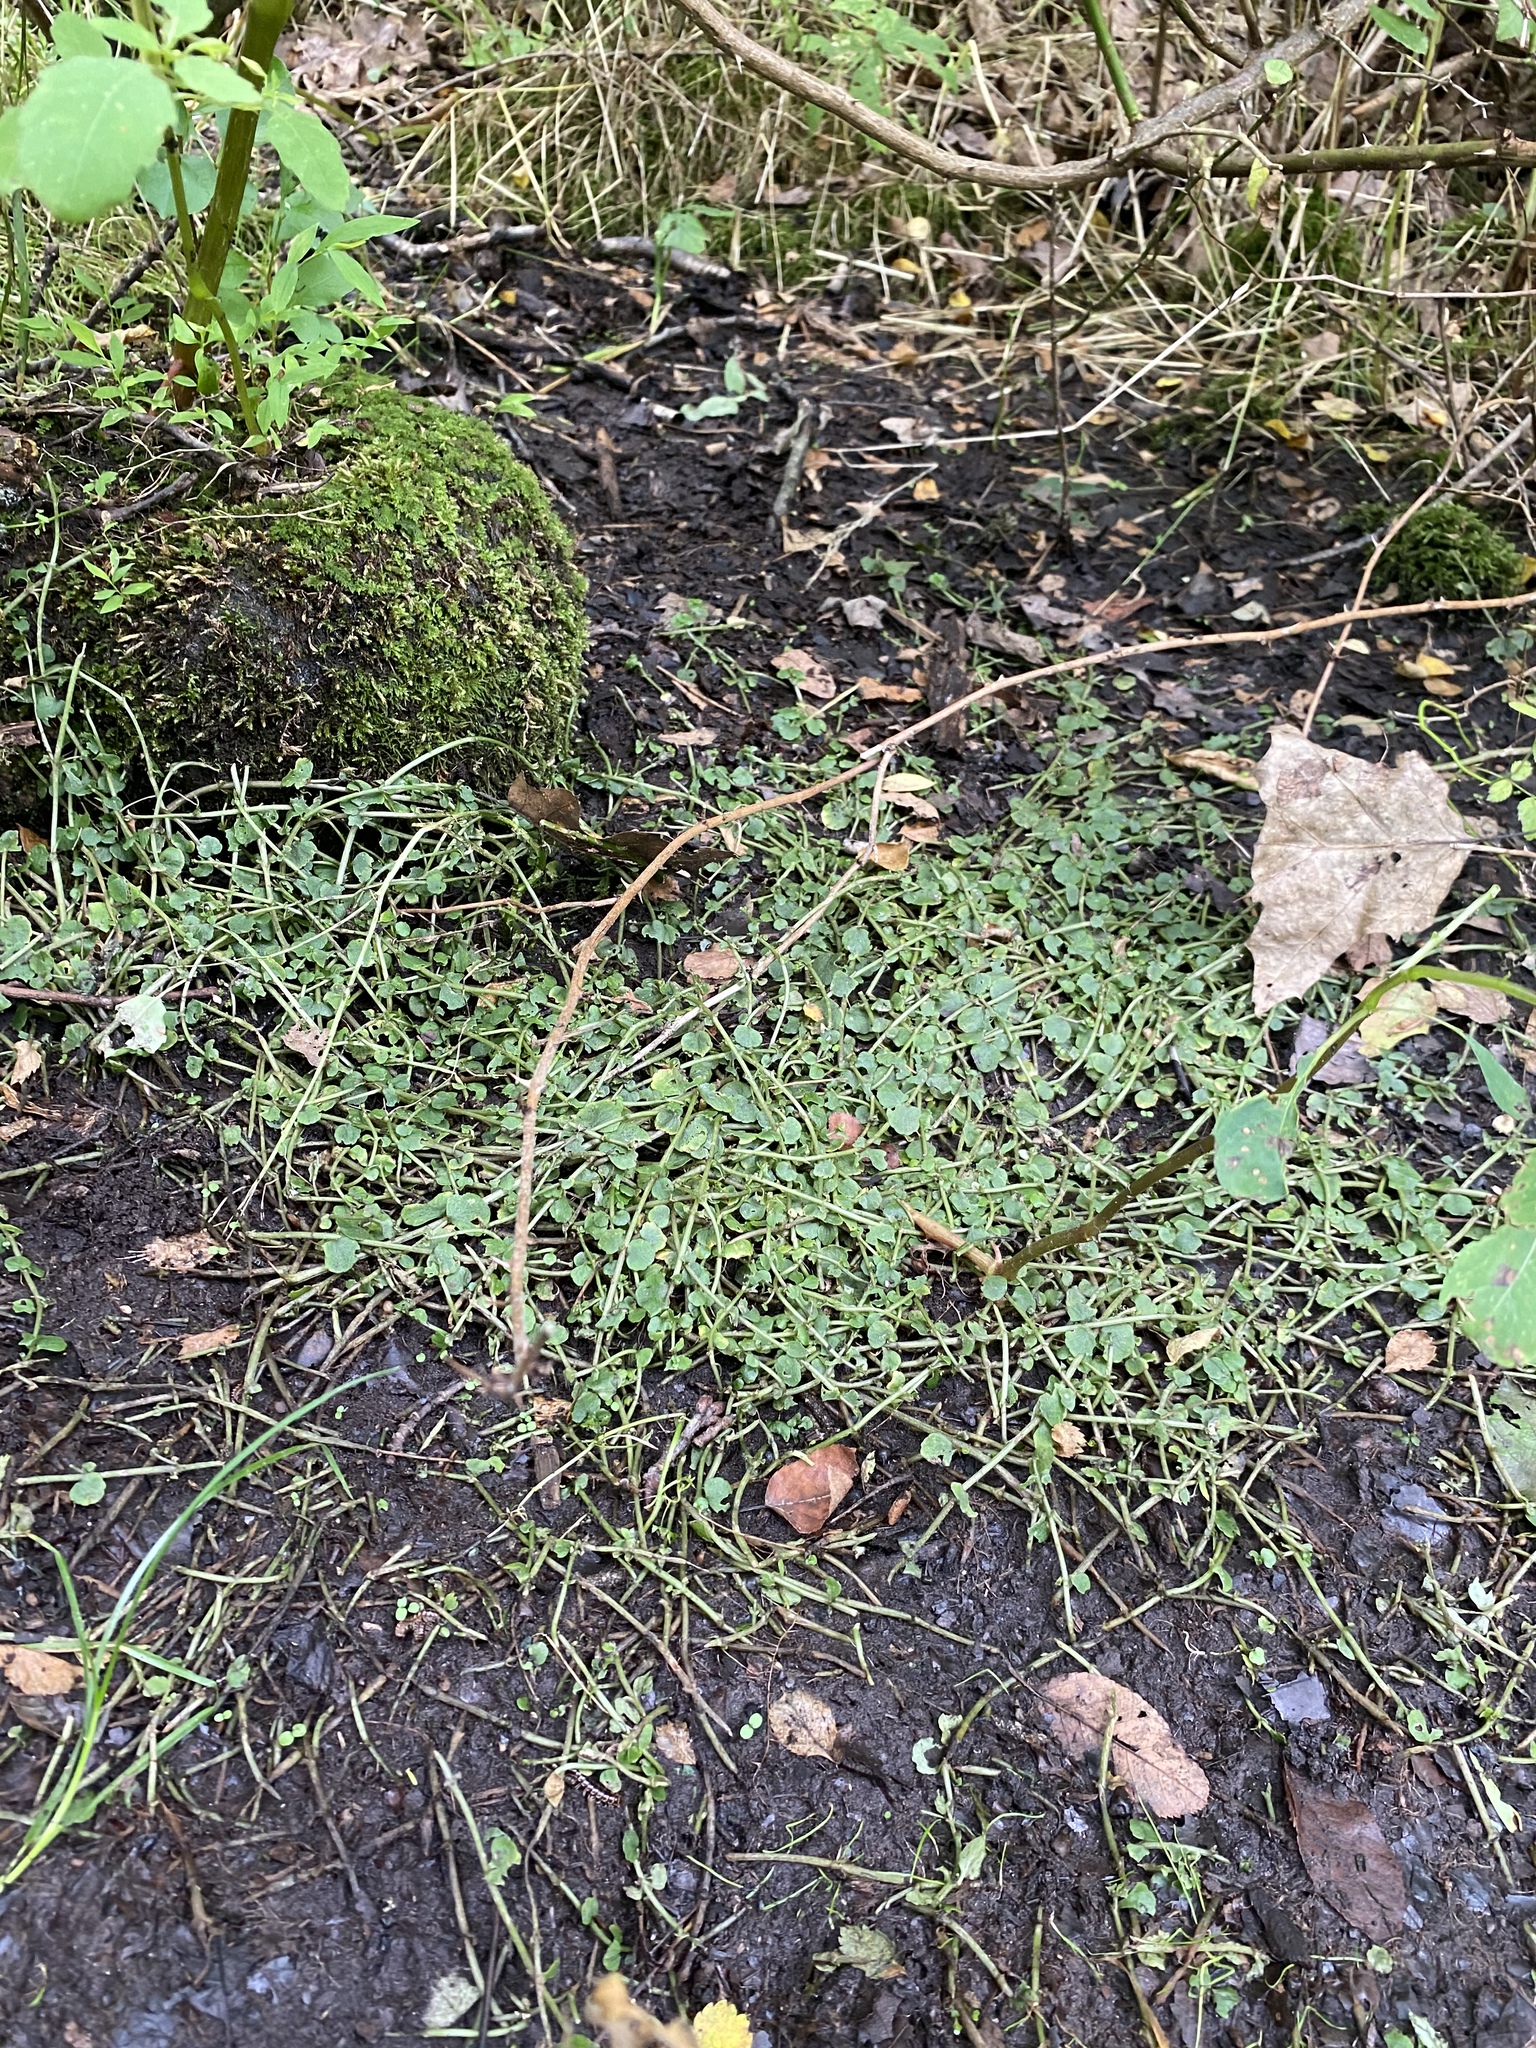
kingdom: Plantae
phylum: Tracheophyta
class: Magnoliopsida
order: Saxifragales
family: Saxifragaceae
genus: Chrysosplenium
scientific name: Chrysosplenium americanum
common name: American golden-saxifrage
